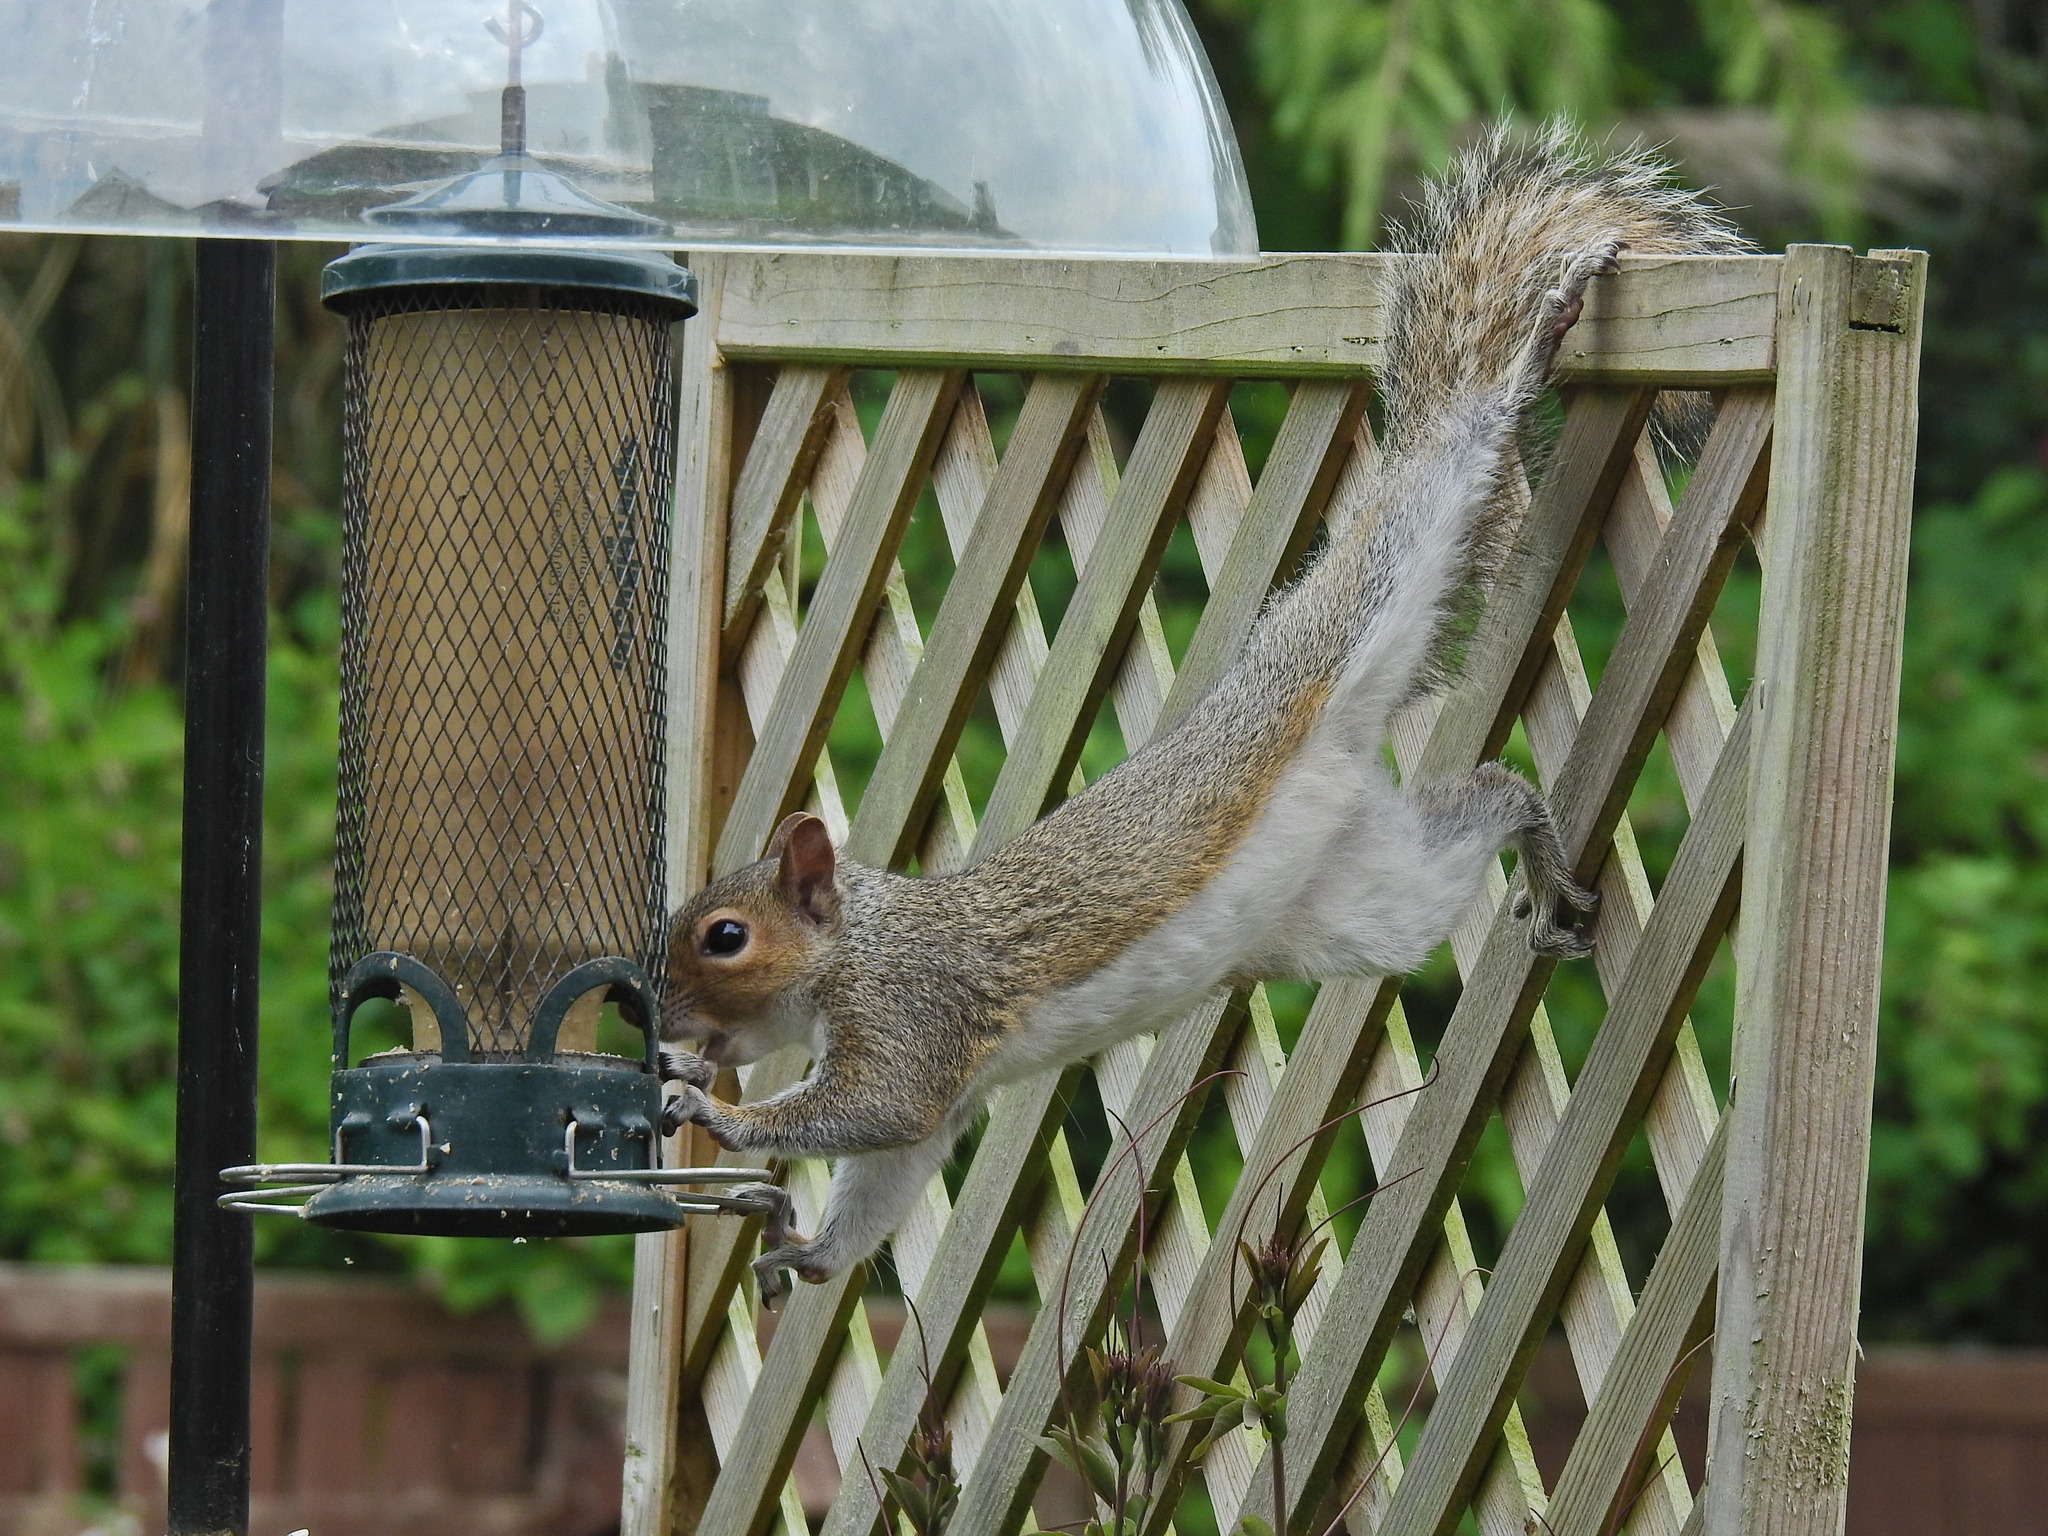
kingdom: Animalia
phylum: Chordata
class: Mammalia
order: Rodentia
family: Sciuridae
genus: Sciurus
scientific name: Sciurus carolinensis
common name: Eastern gray squirrel
